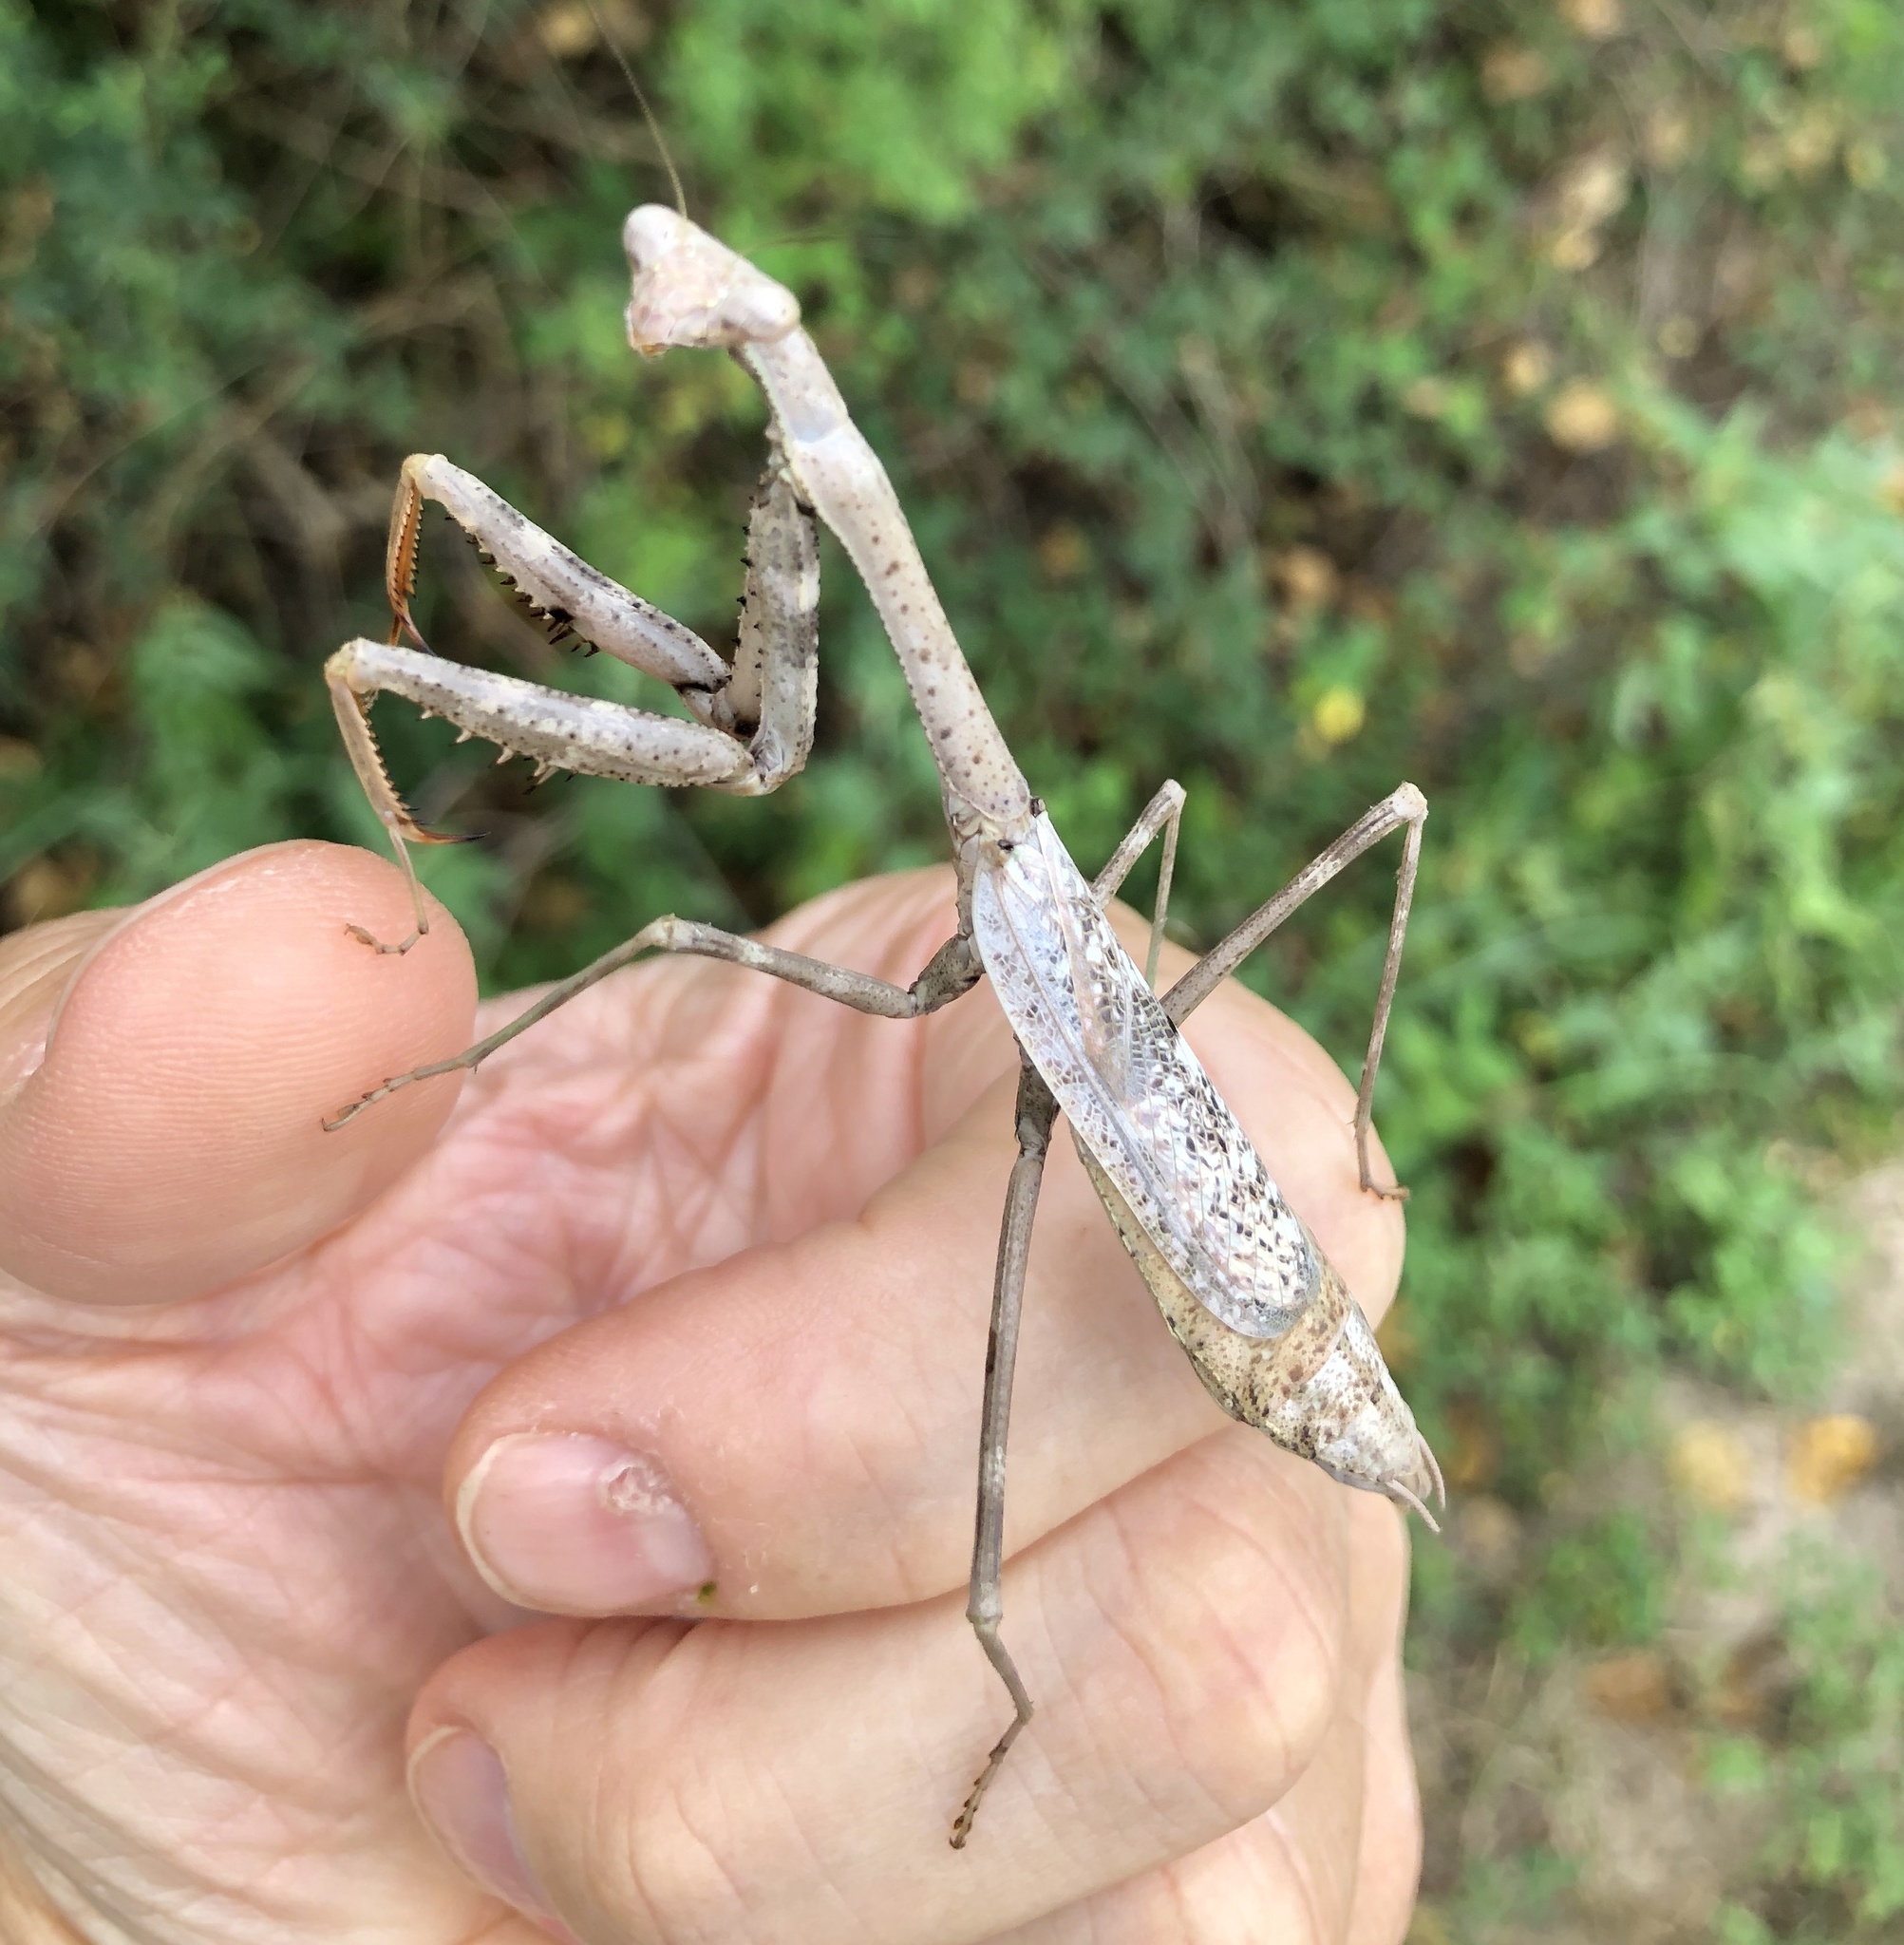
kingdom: Animalia
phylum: Arthropoda
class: Insecta
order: Mantodea
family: Mantidae
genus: Stagmomantis
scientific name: Stagmomantis carolina
